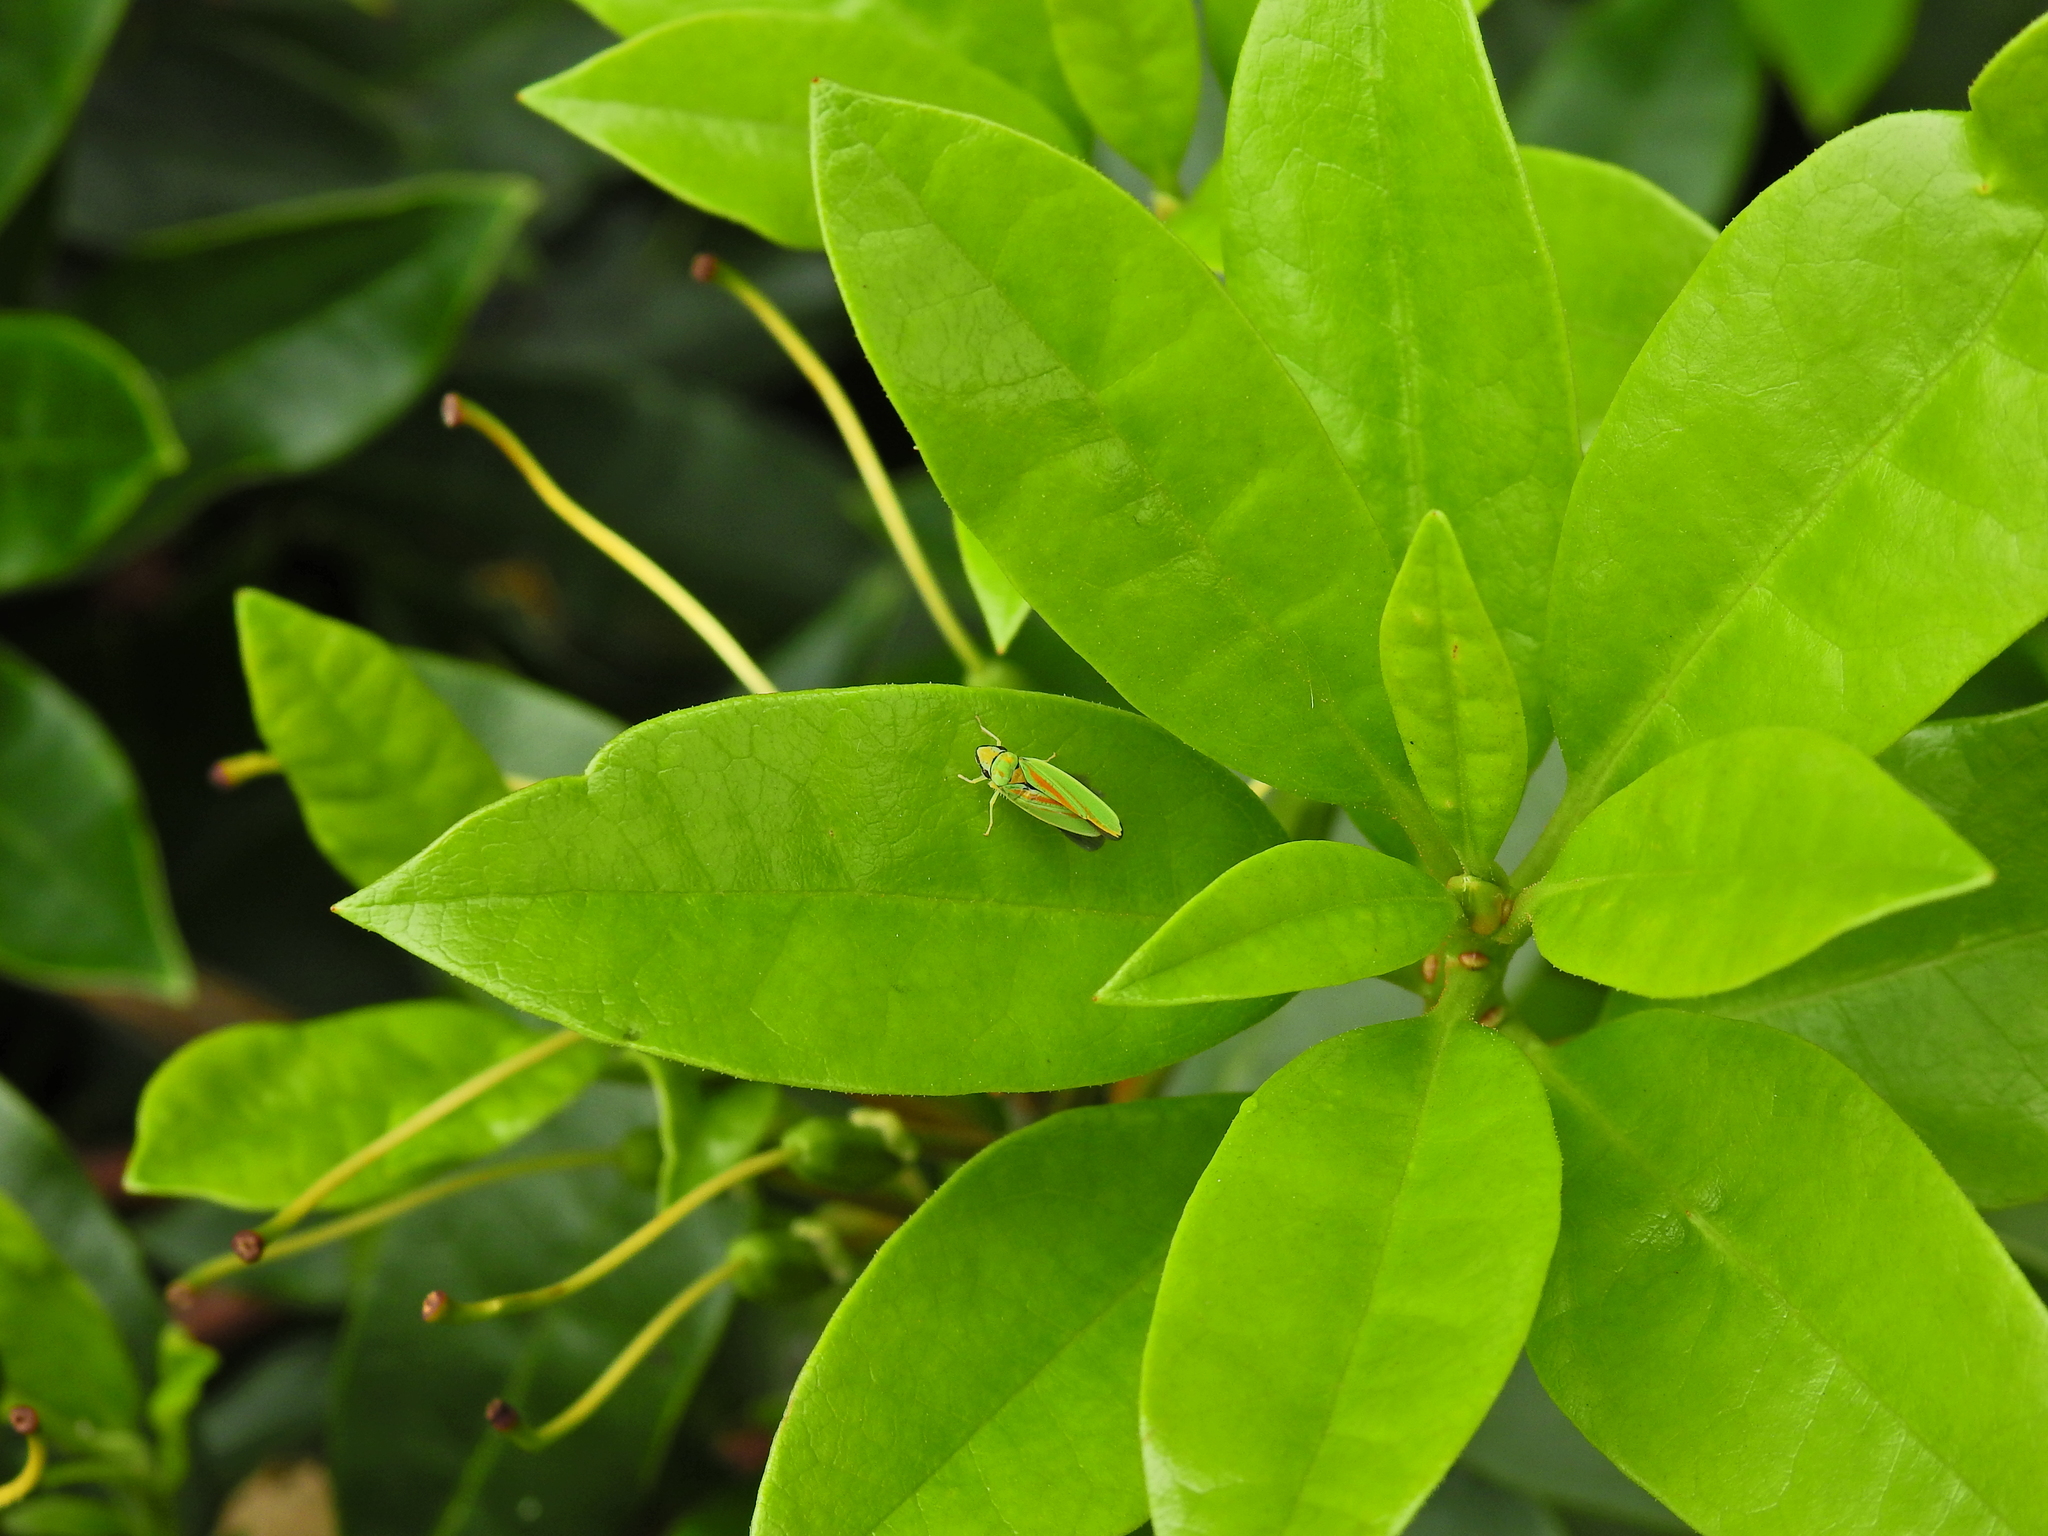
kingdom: Animalia
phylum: Arthropoda
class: Insecta
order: Hemiptera
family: Cicadellidae
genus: Graphocephala
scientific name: Graphocephala fennahi
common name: Rhododendron leafhopper
